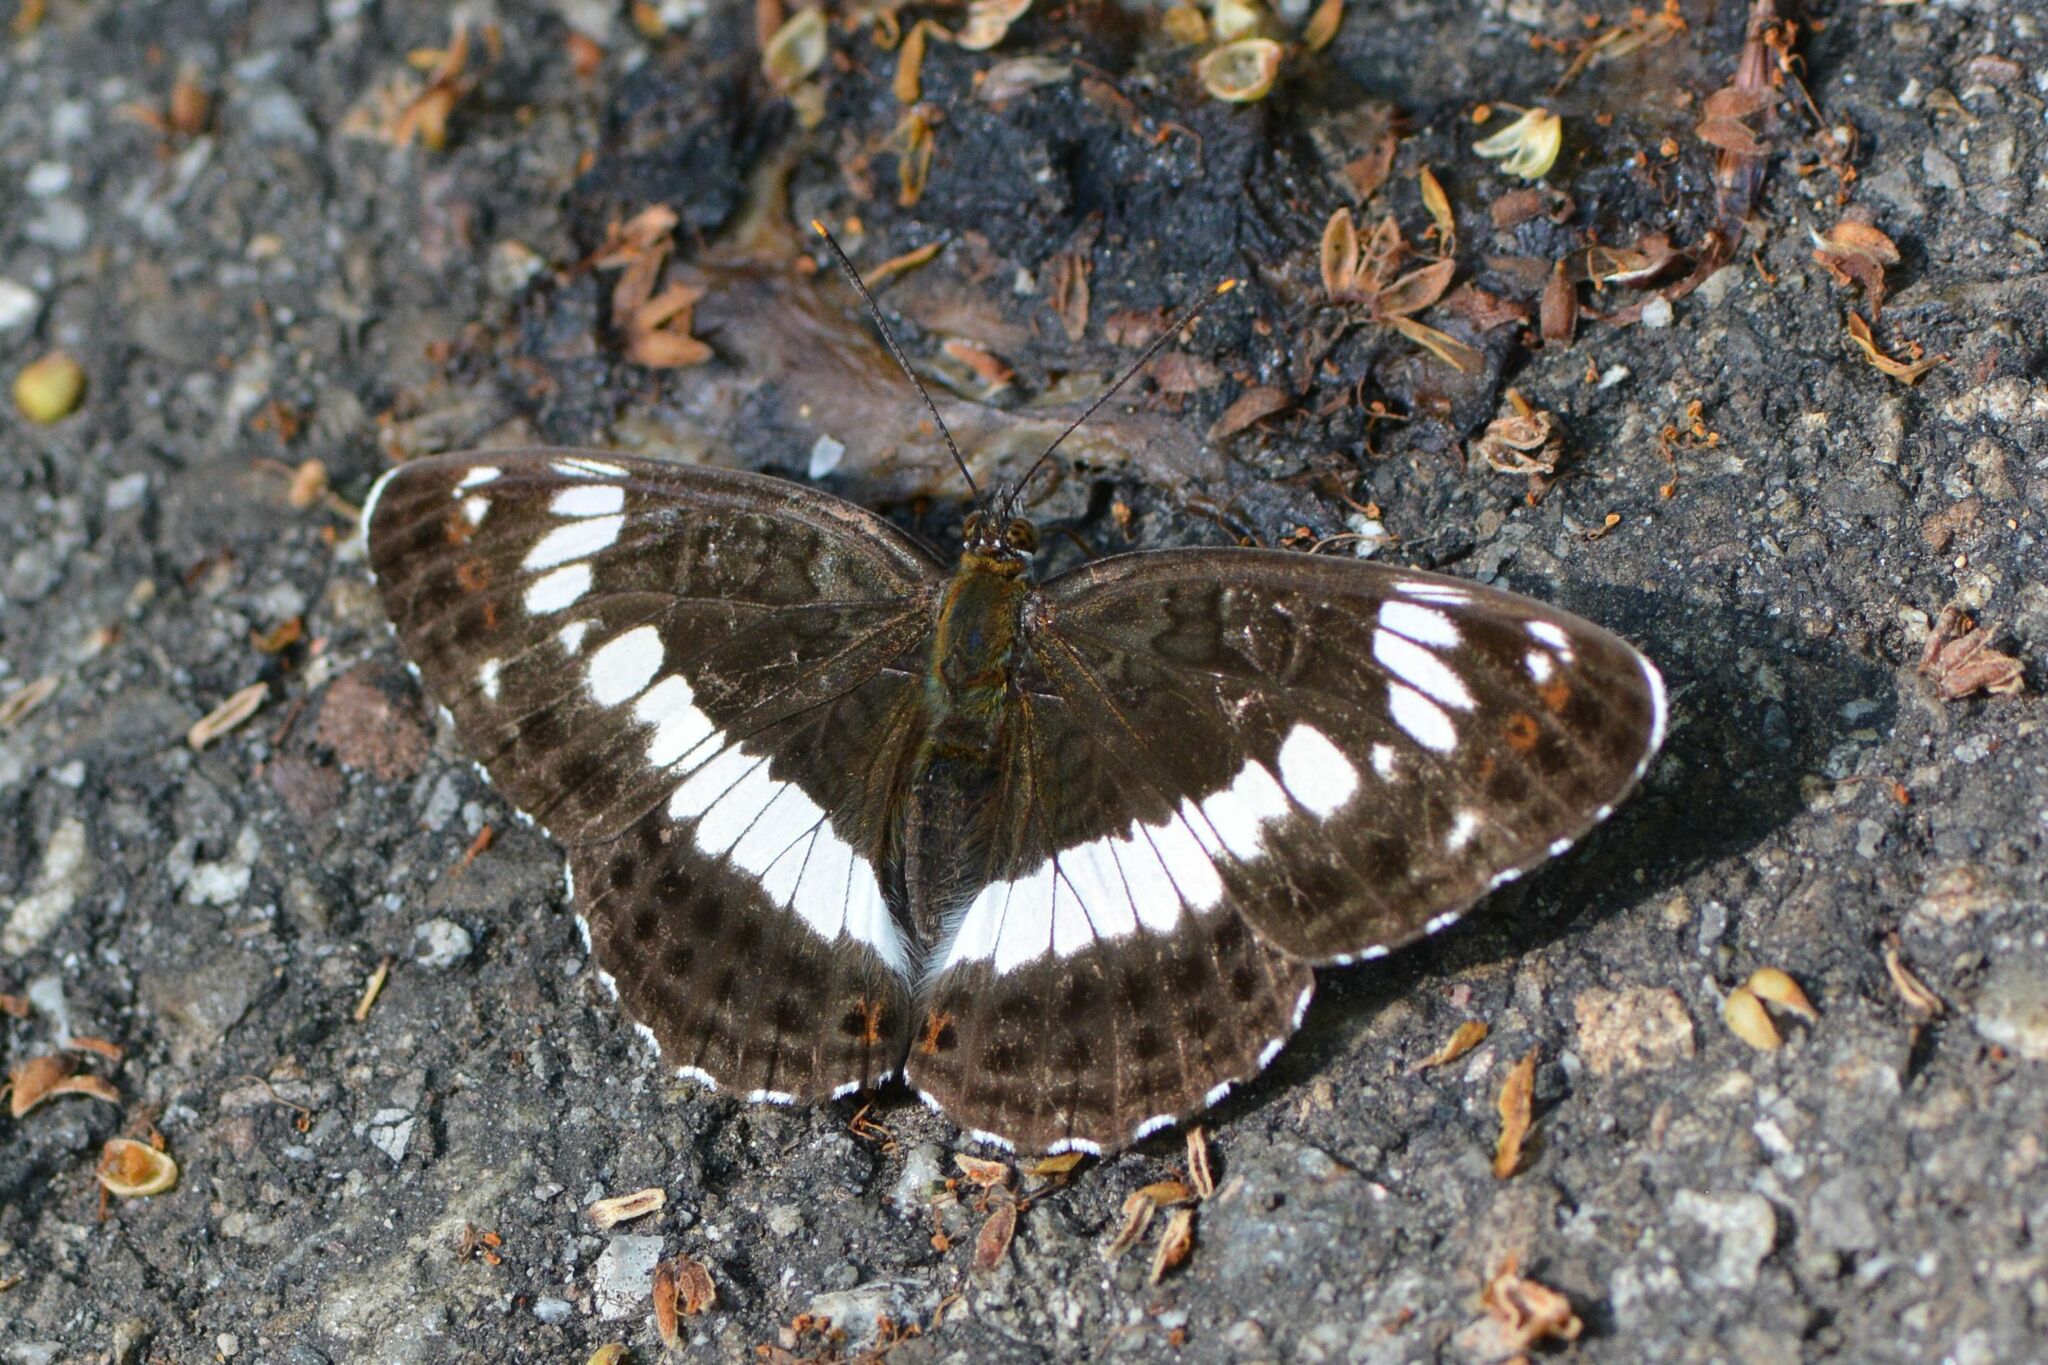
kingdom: Animalia
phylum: Arthropoda
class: Insecta
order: Lepidoptera
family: Nymphalidae
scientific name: Nymphalidae
